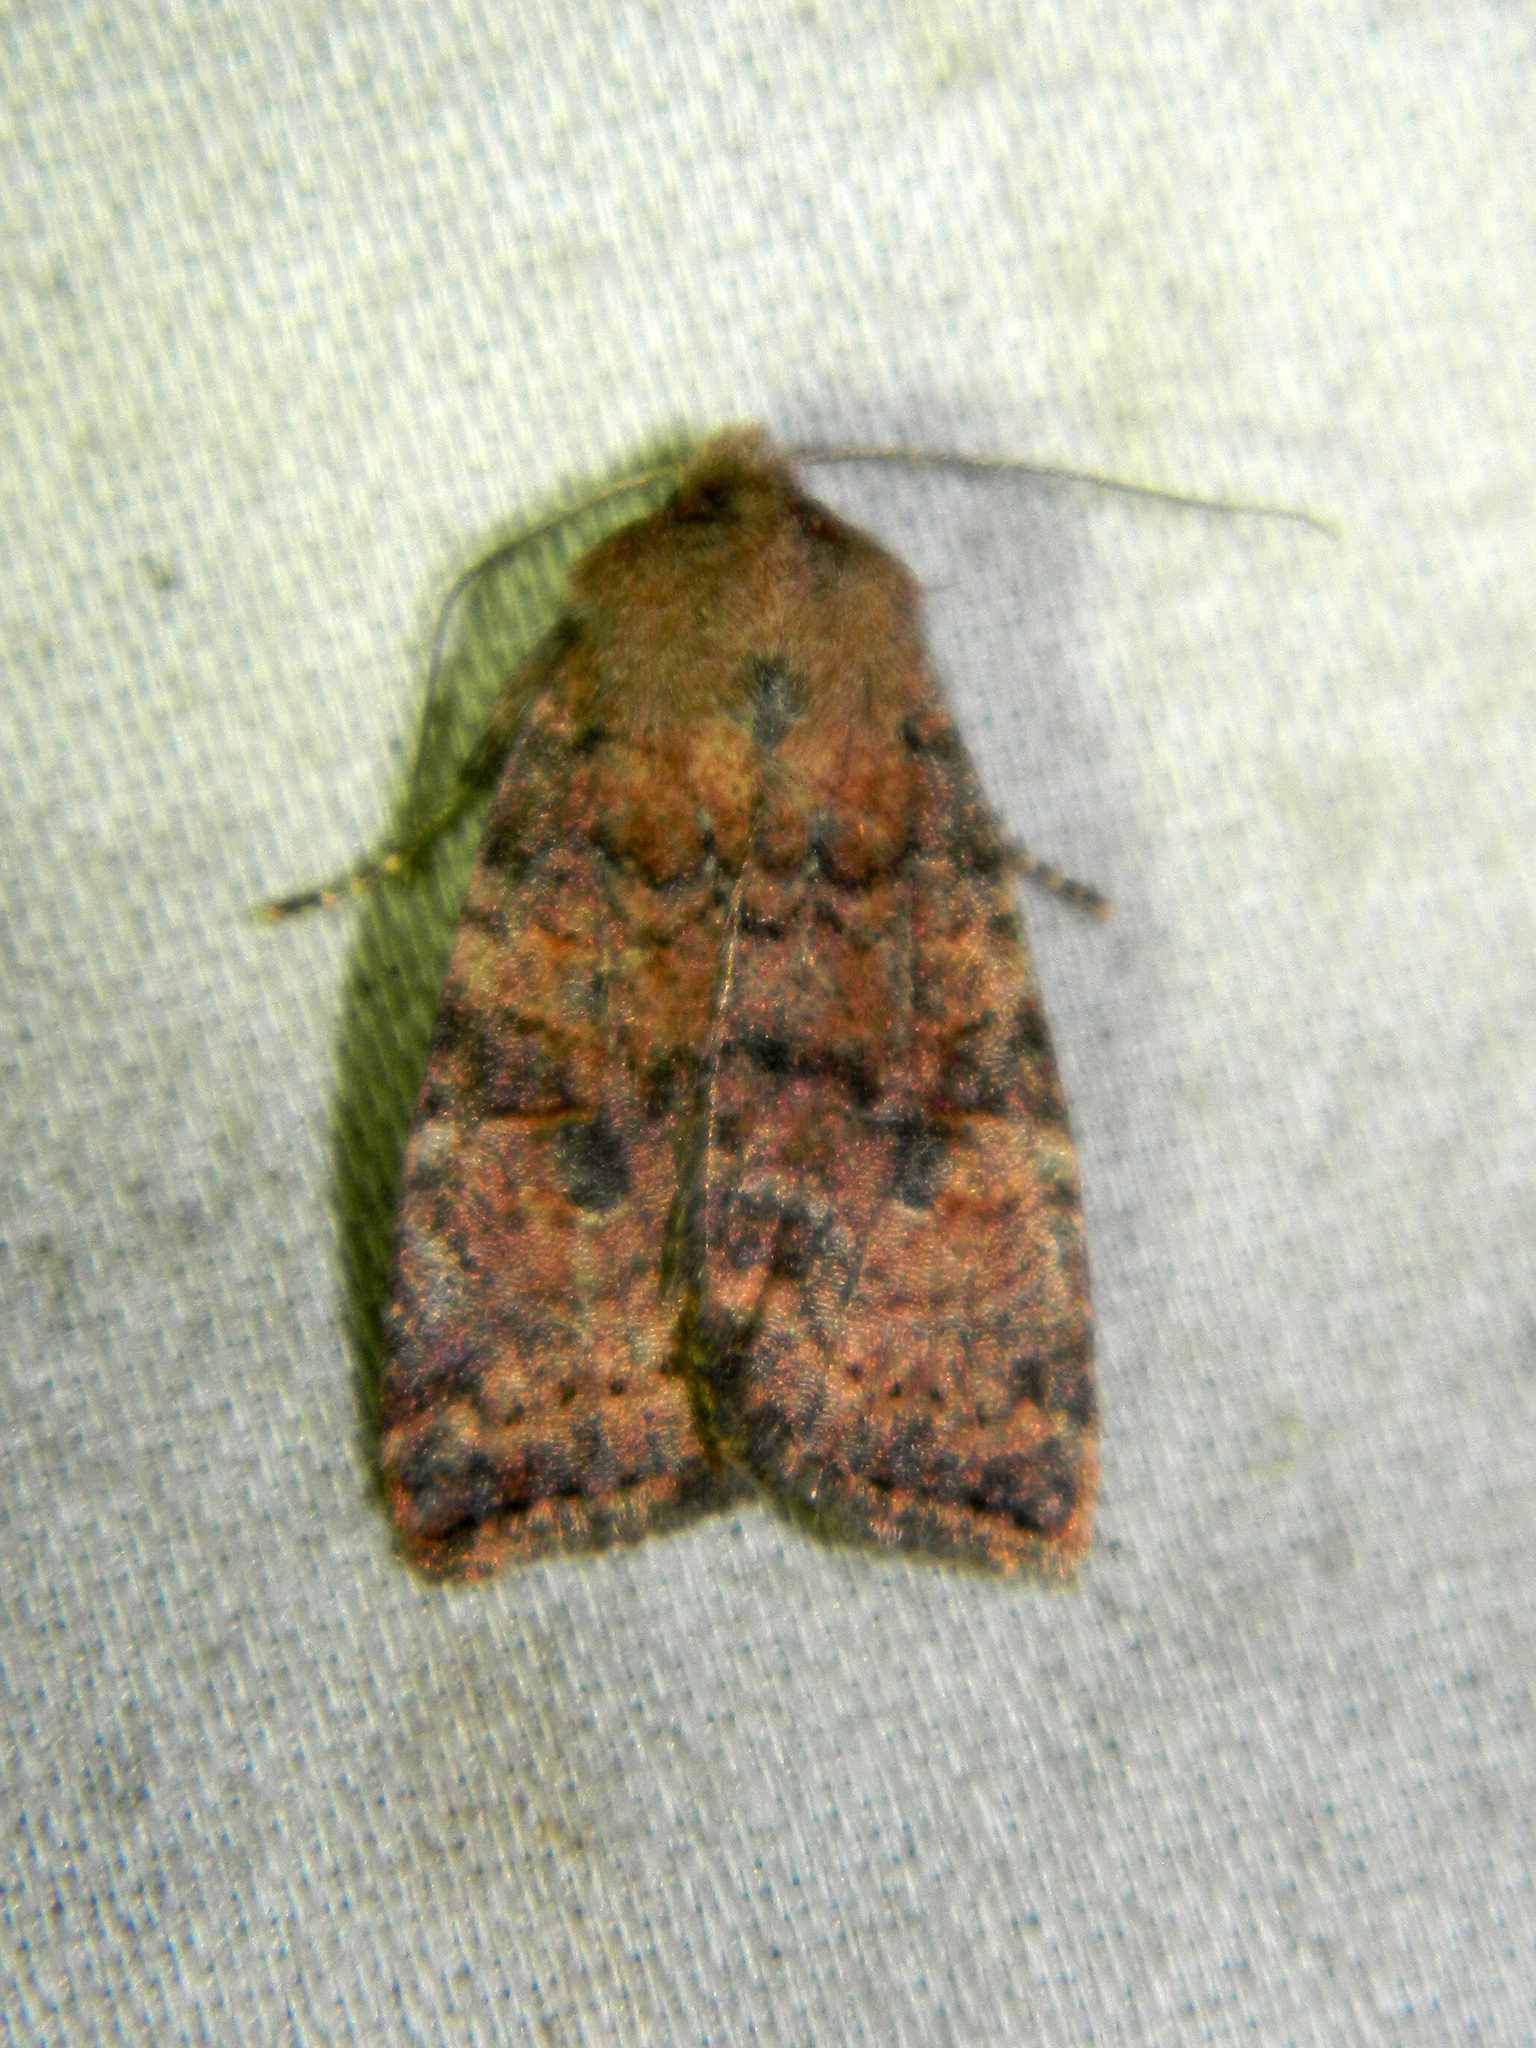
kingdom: Animalia
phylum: Arthropoda
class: Insecta
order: Lepidoptera
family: Noctuidae
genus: Anathix
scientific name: Anathix puta
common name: Puta sallow
